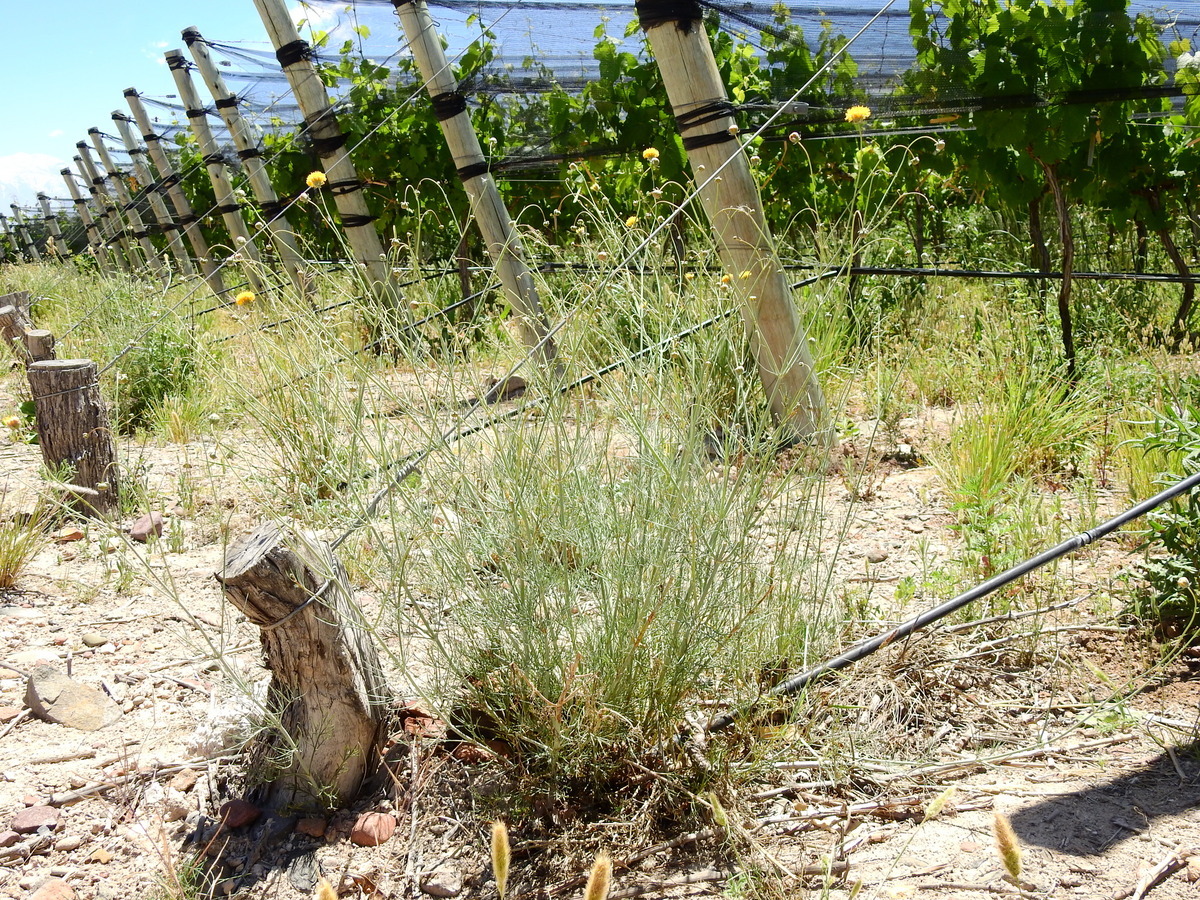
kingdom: Plantae
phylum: Tracheophyta
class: Magnoliopsida
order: Asterales
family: Asteraceae
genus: Thelesperma
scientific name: Thelesperma megapotamicum
